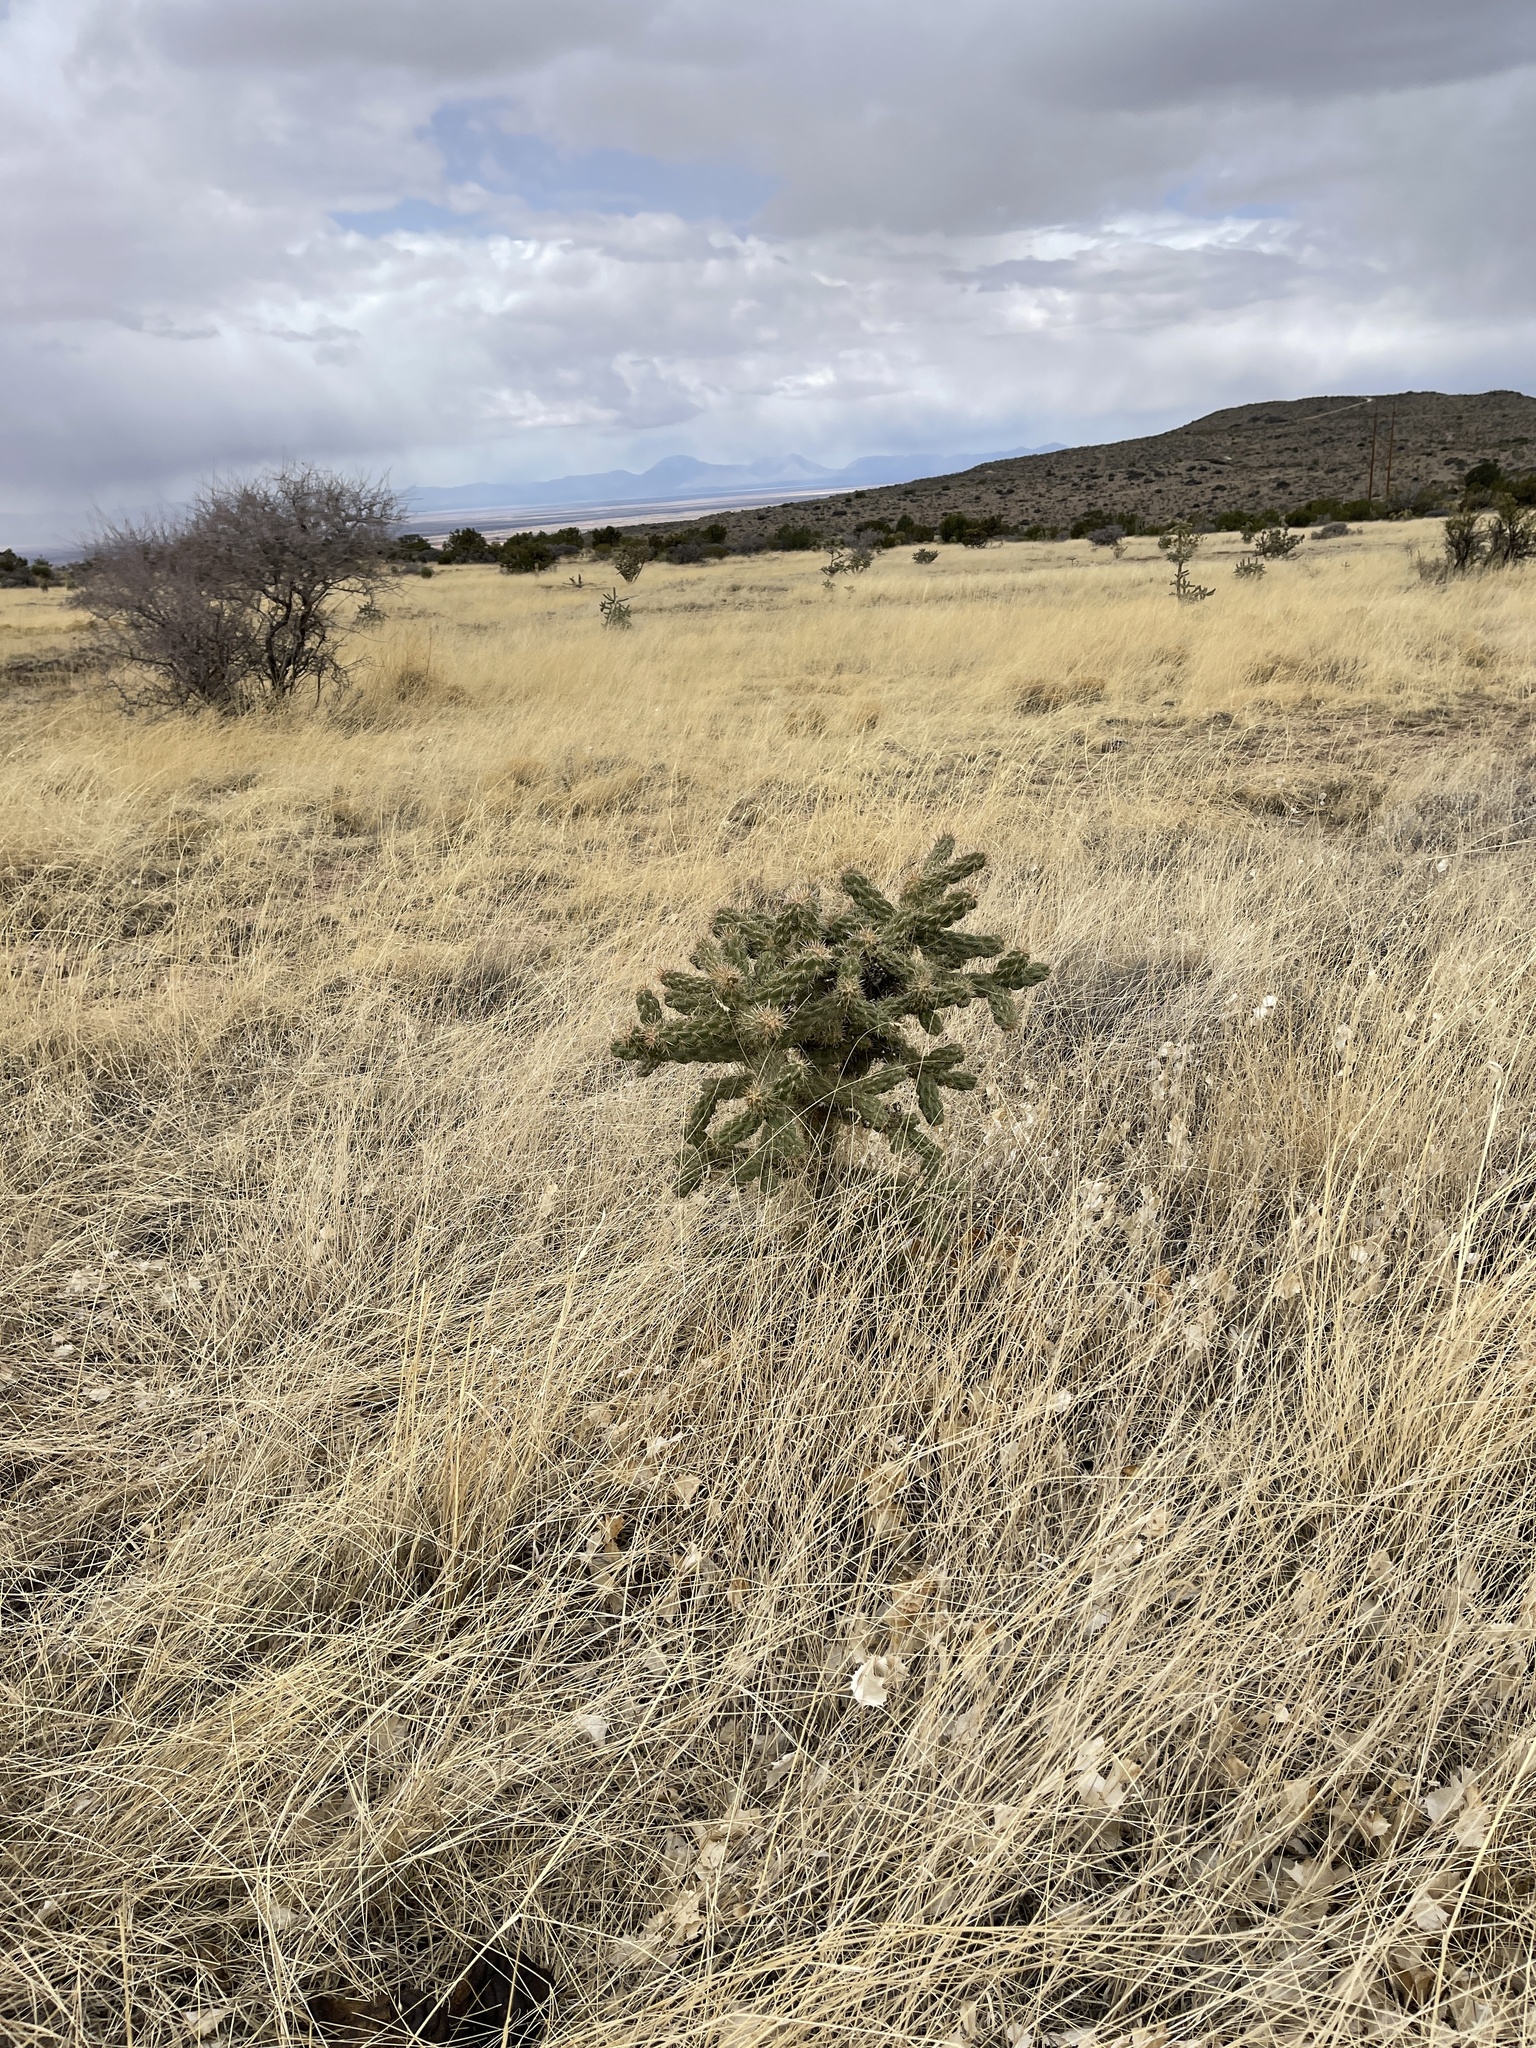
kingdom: Plantae
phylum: Tracheophyta
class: Magnoliopsida
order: Caryophyllales
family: Cactaceae
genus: Cylindropuntia
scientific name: Cylindropuntia imbricata
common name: Candelabrum cactus
